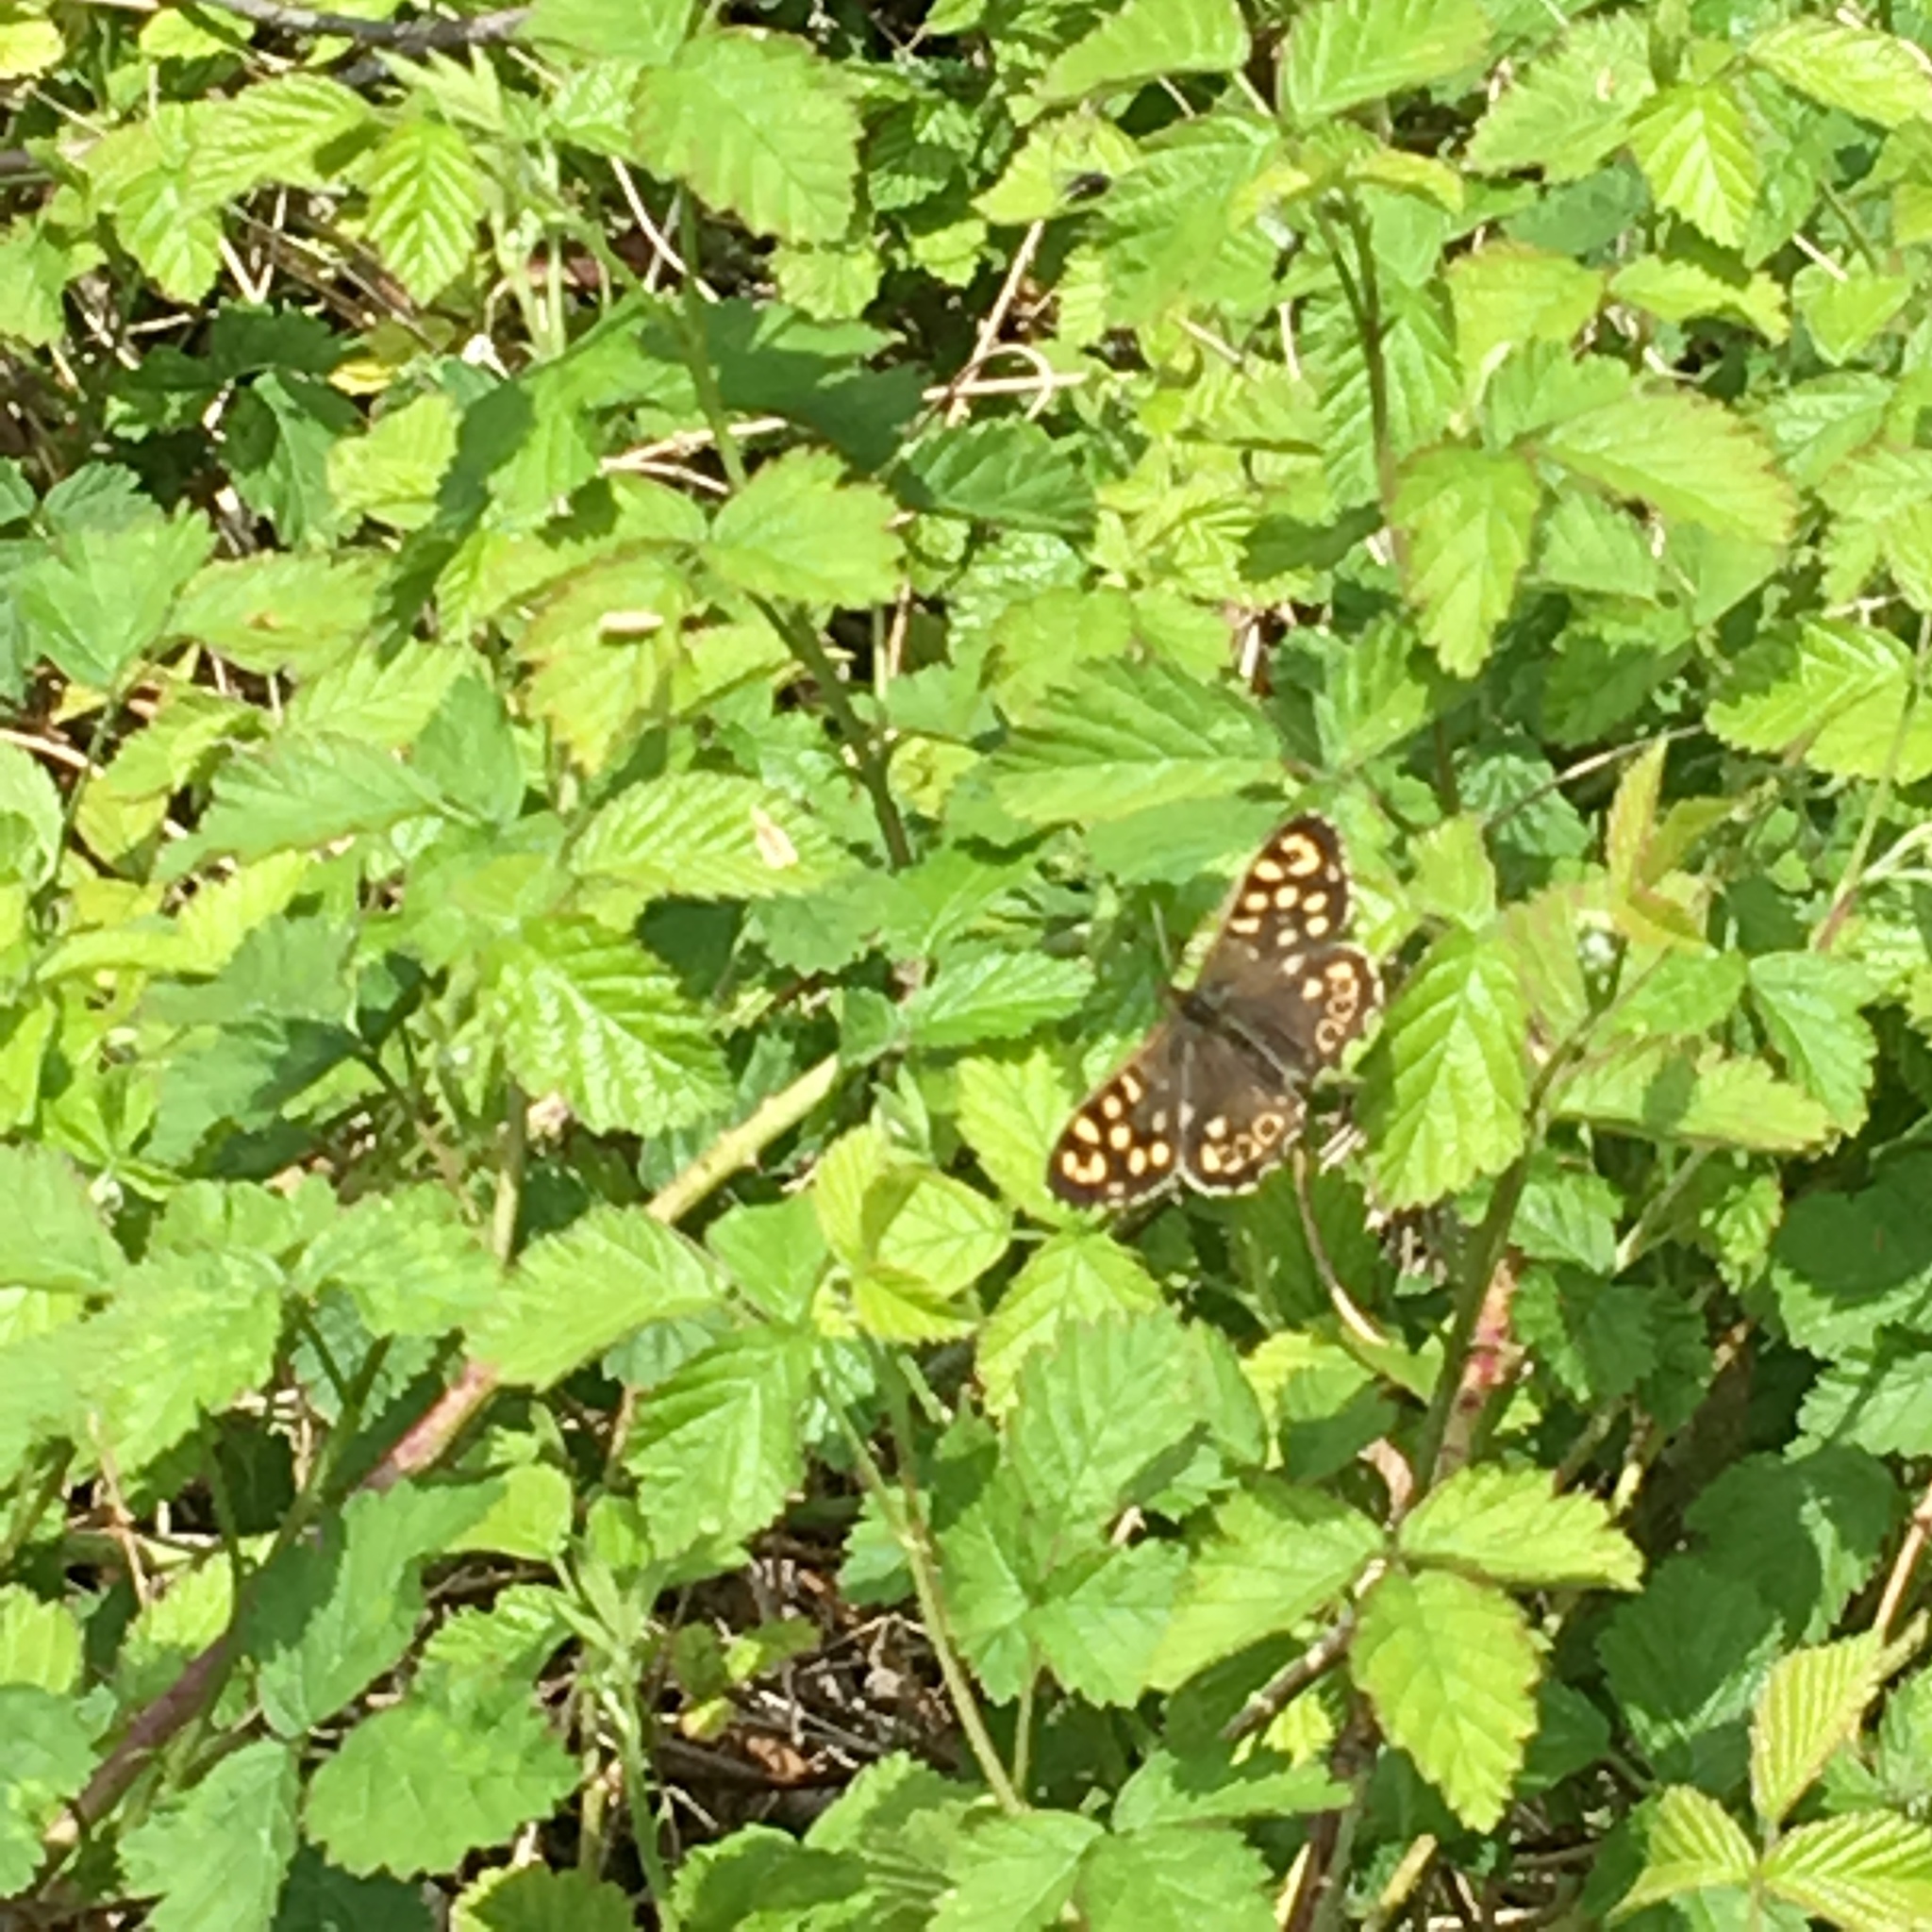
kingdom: Animalia
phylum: Arthropoda
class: Insecta
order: Lepidoptera
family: Nymphalidae
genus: Pararge
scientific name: Pararge aegeria
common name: Speckled wood
